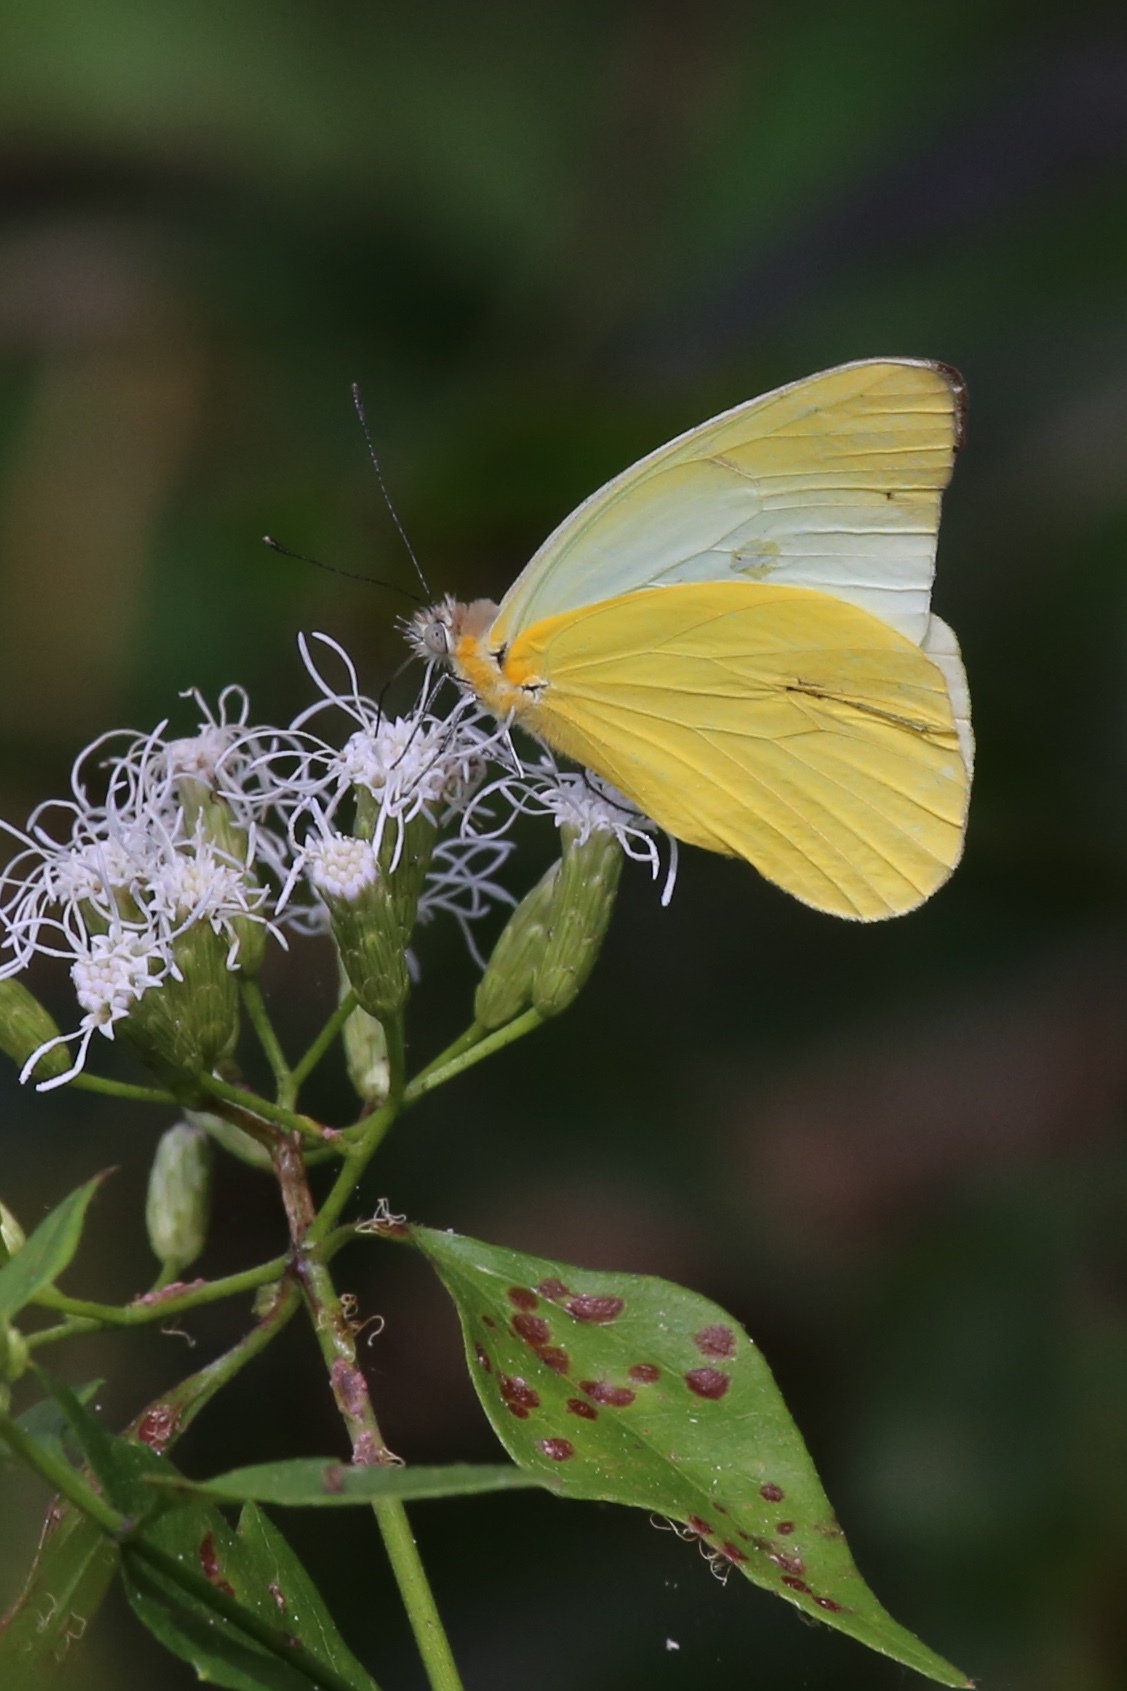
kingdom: Animalia
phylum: Arthropoda
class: Insecta
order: Lepidoptera
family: Pieridae
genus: Melete
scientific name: Melete lycimnia
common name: Common melwhite
